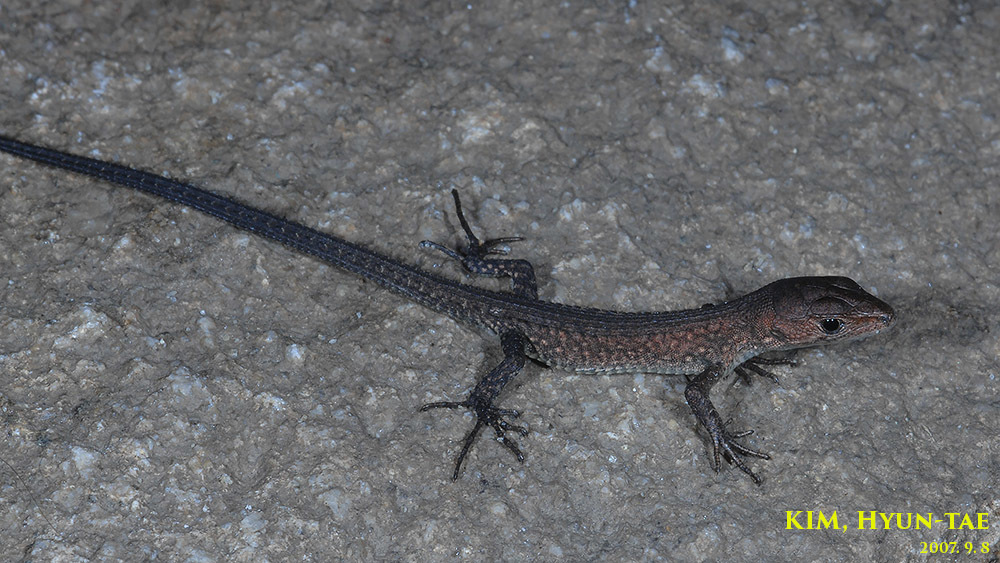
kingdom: Animalia
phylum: Chordata
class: Squamata
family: Lacertidae
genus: Takydromus
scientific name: Takydromus amurensis
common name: Amur grass lizard
